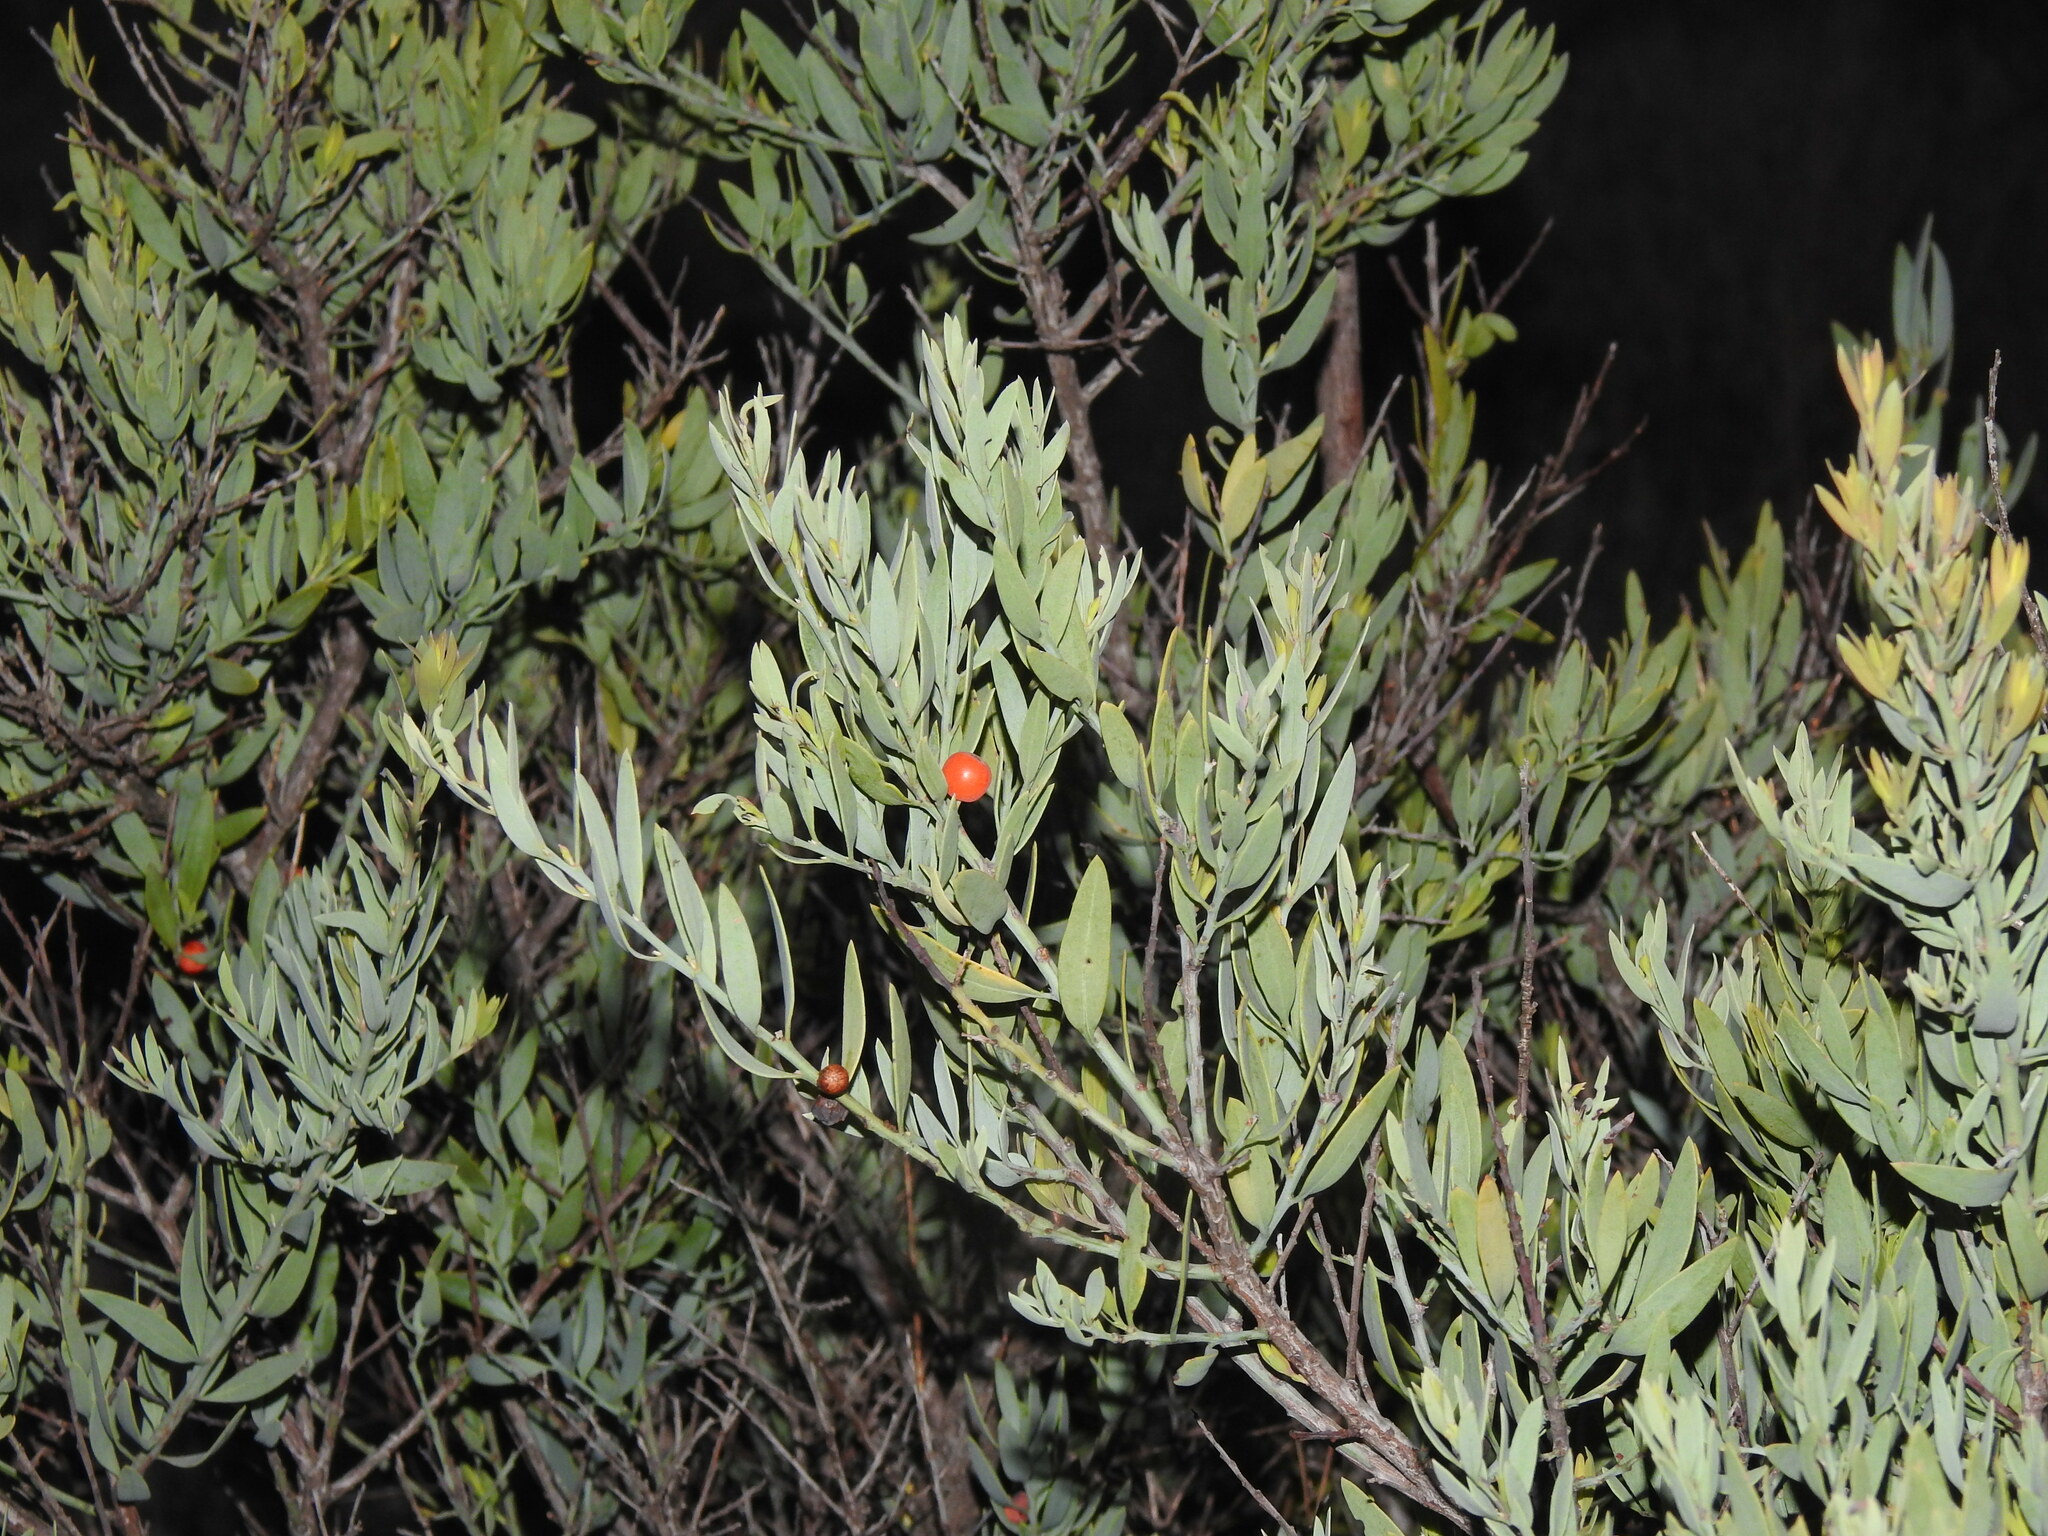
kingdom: Plantae
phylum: Tracheophyta
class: Magnoliopsida
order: Santalales
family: Santalaceae
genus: Osyris
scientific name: Osyris lanceolata
